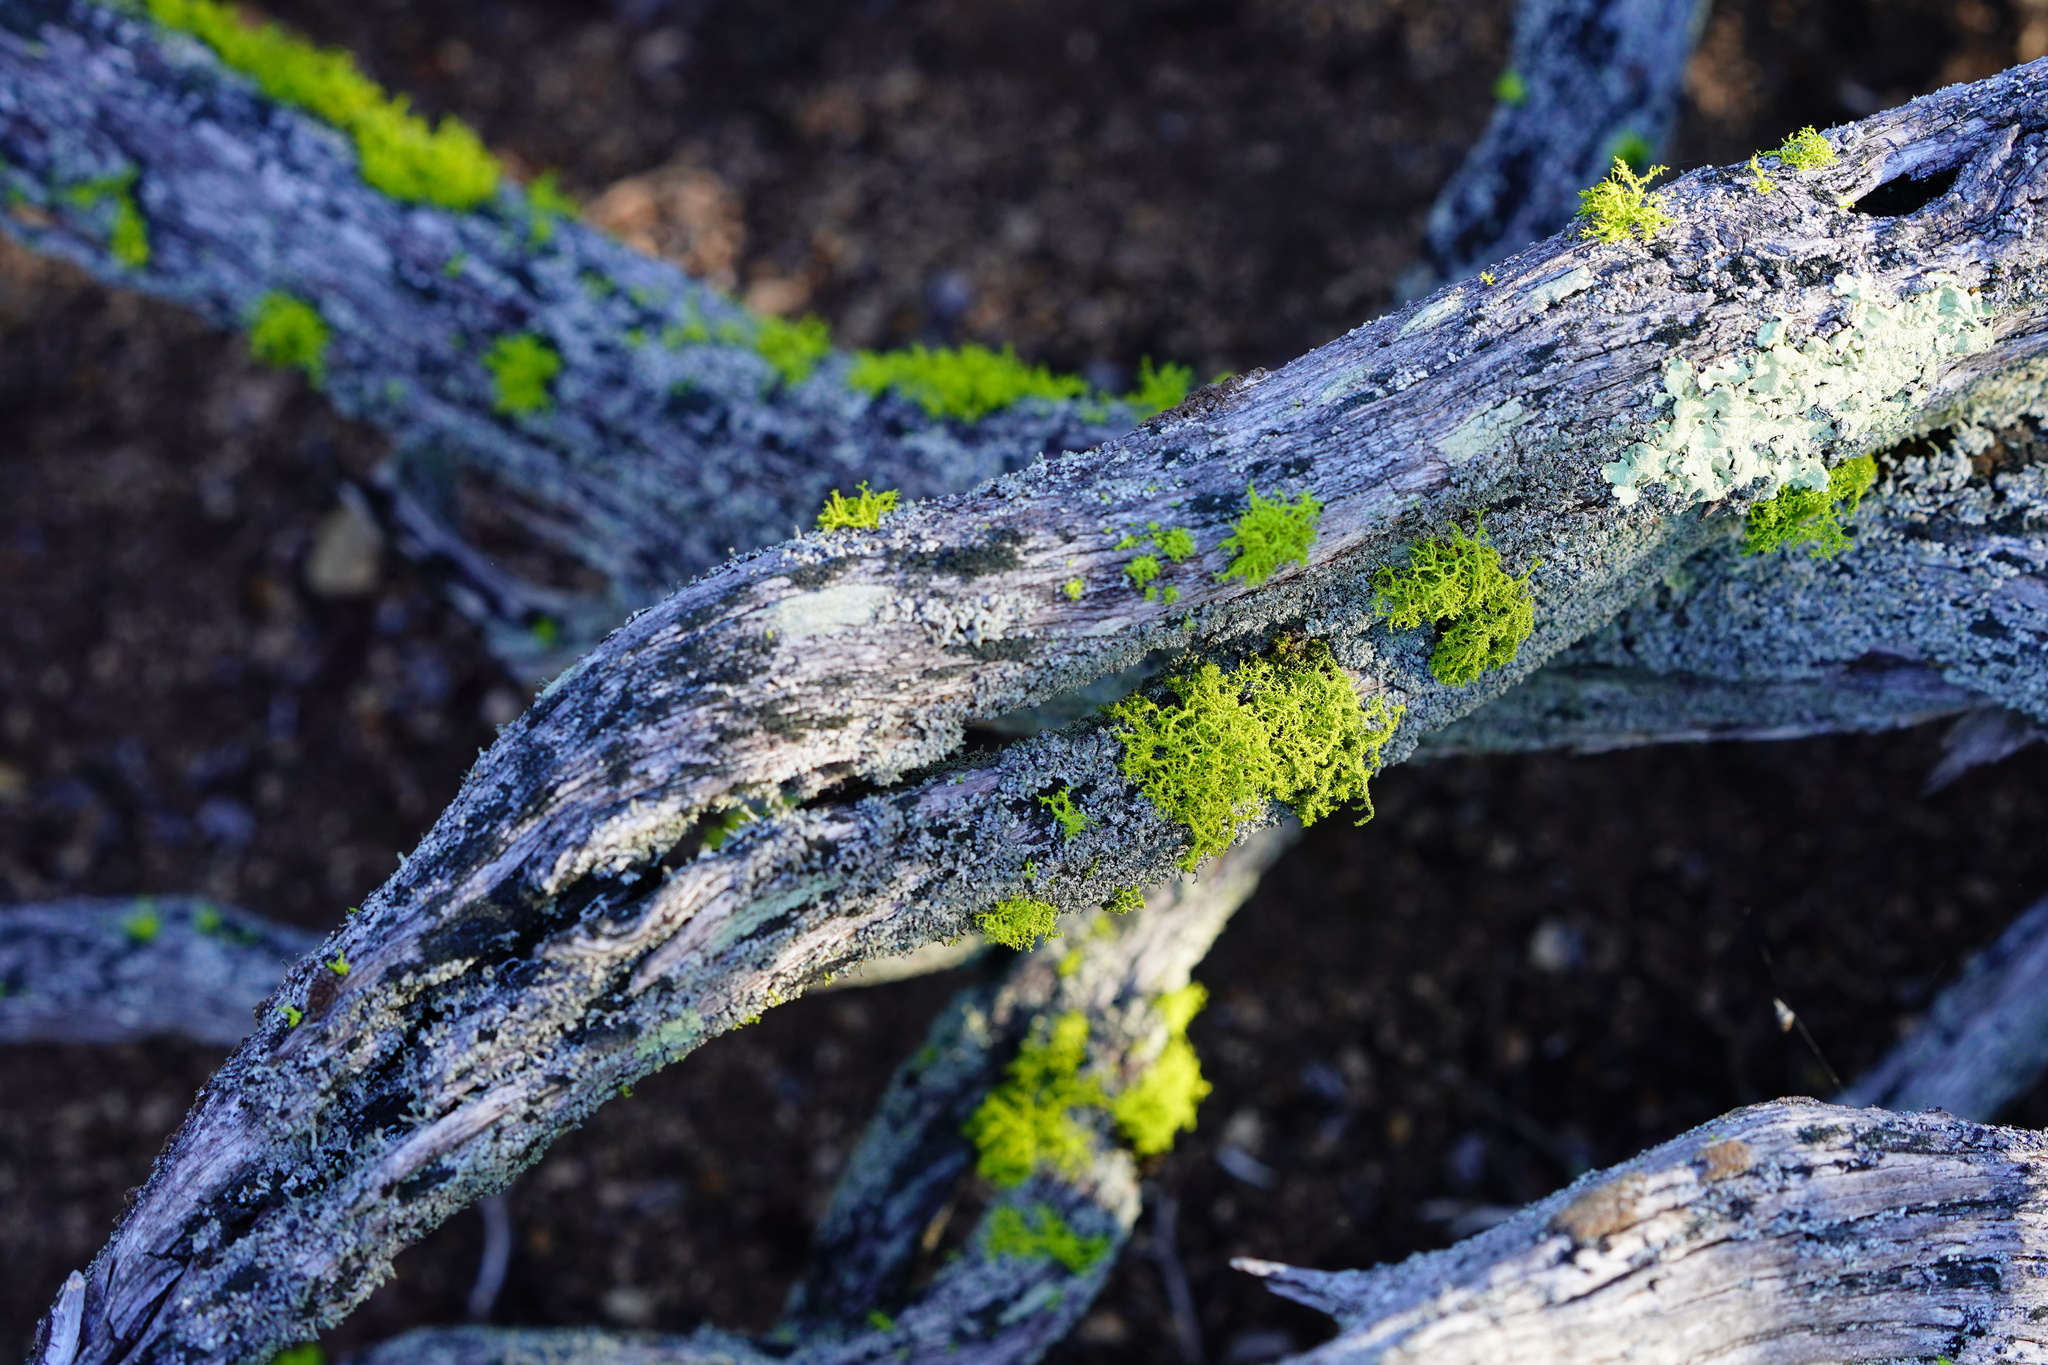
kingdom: Fungi
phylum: Ascomycota
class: Lecanoromycetes
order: Lecanorales
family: Parmeliaceae
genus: Letharia
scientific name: Letharia vulpina
